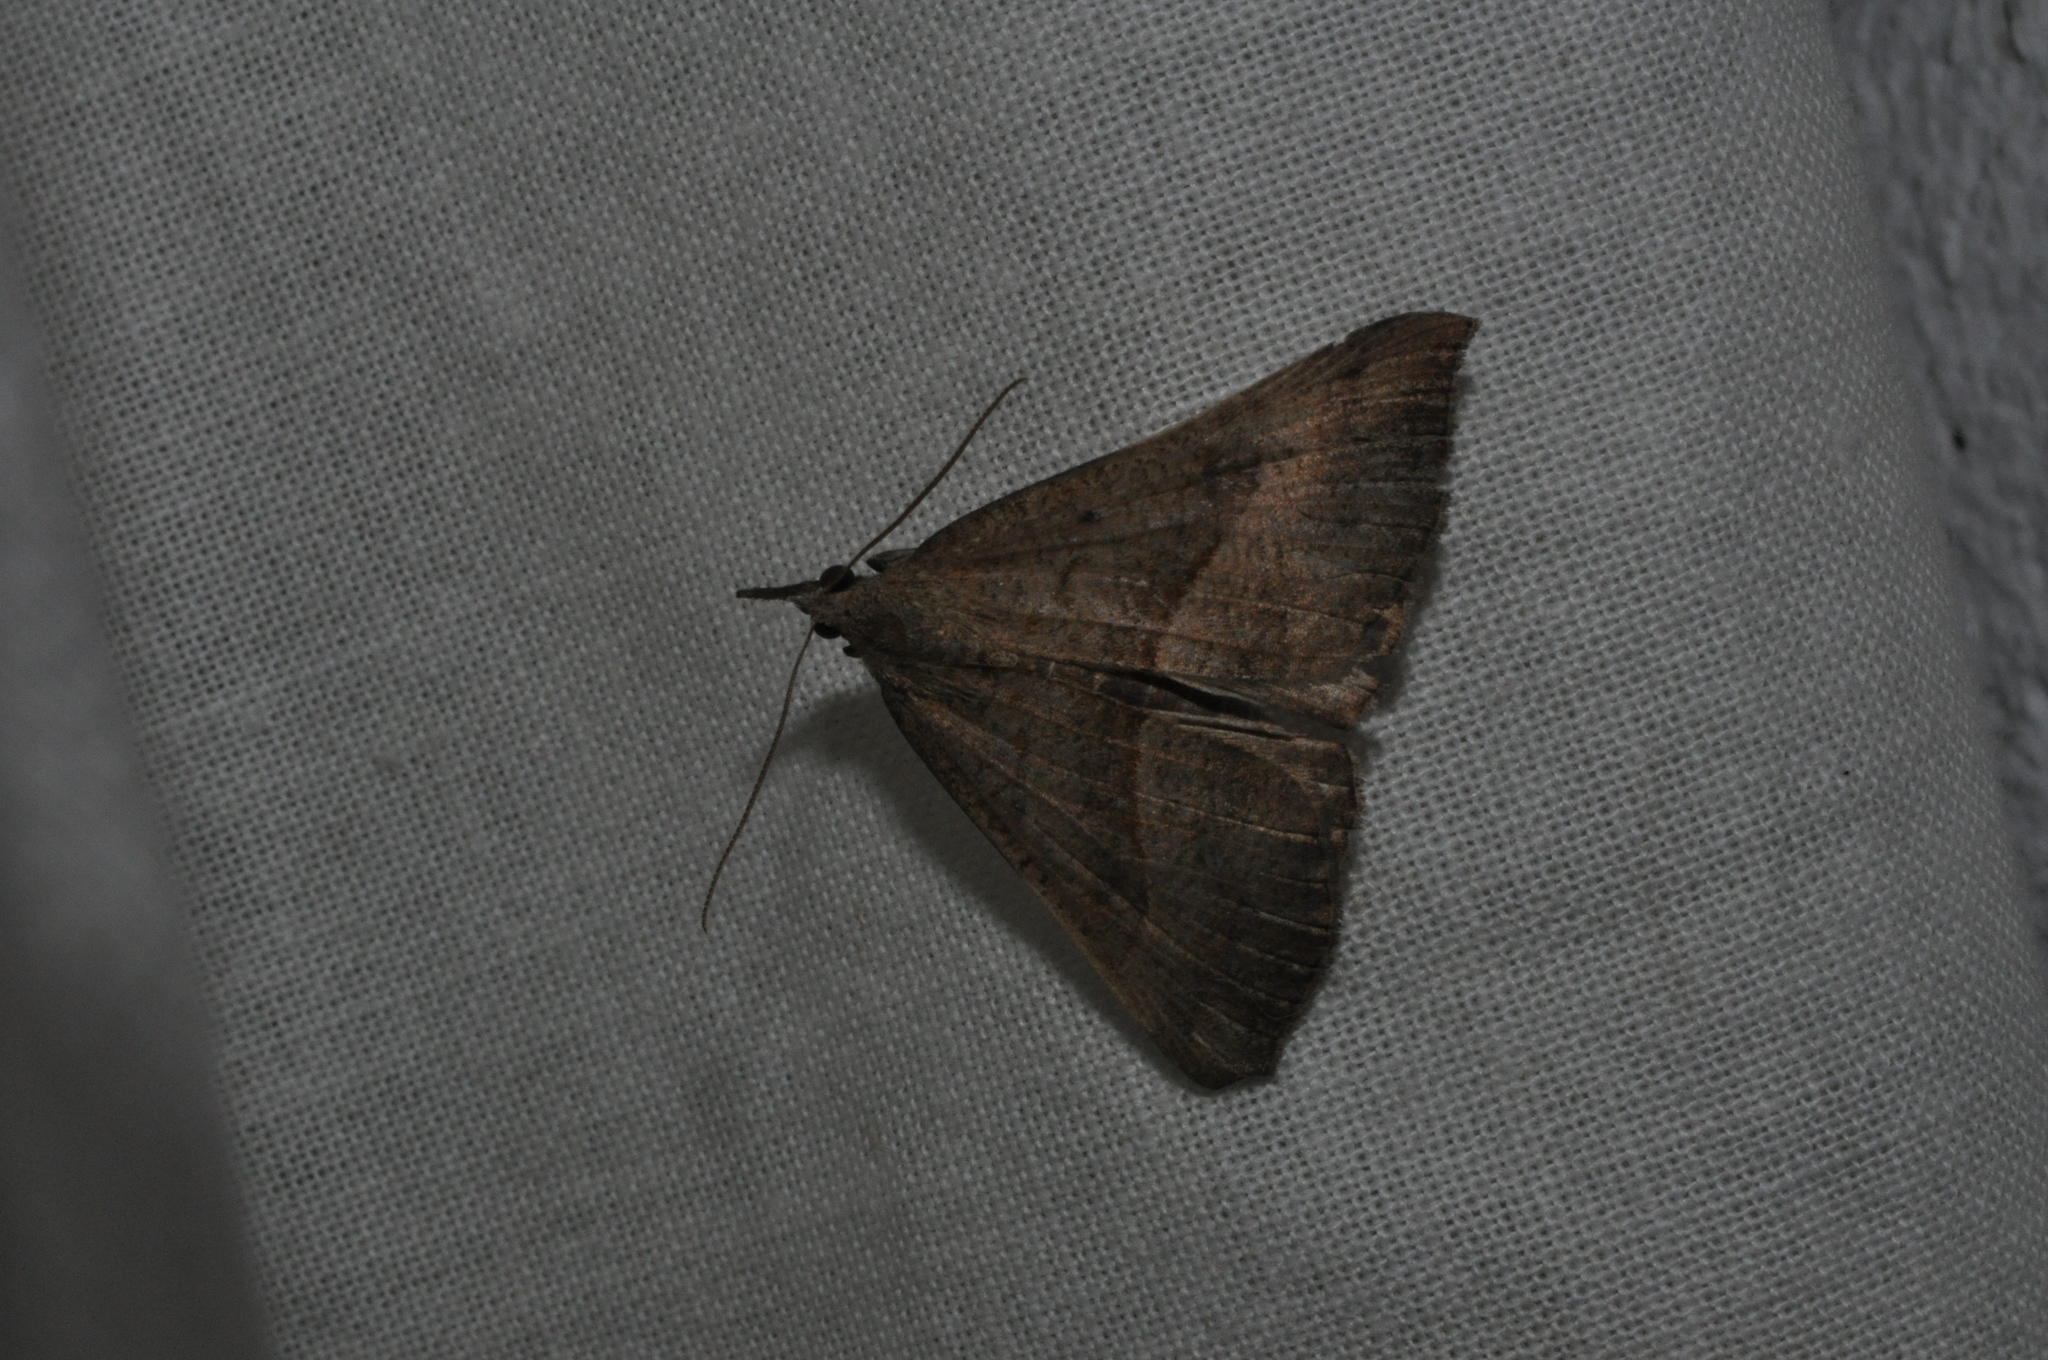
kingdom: Animalia
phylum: Arthropoda
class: Insecta
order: Lepidoptera
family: Erebidae
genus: Hypena
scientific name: Hypena proboscidalis
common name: Snout
